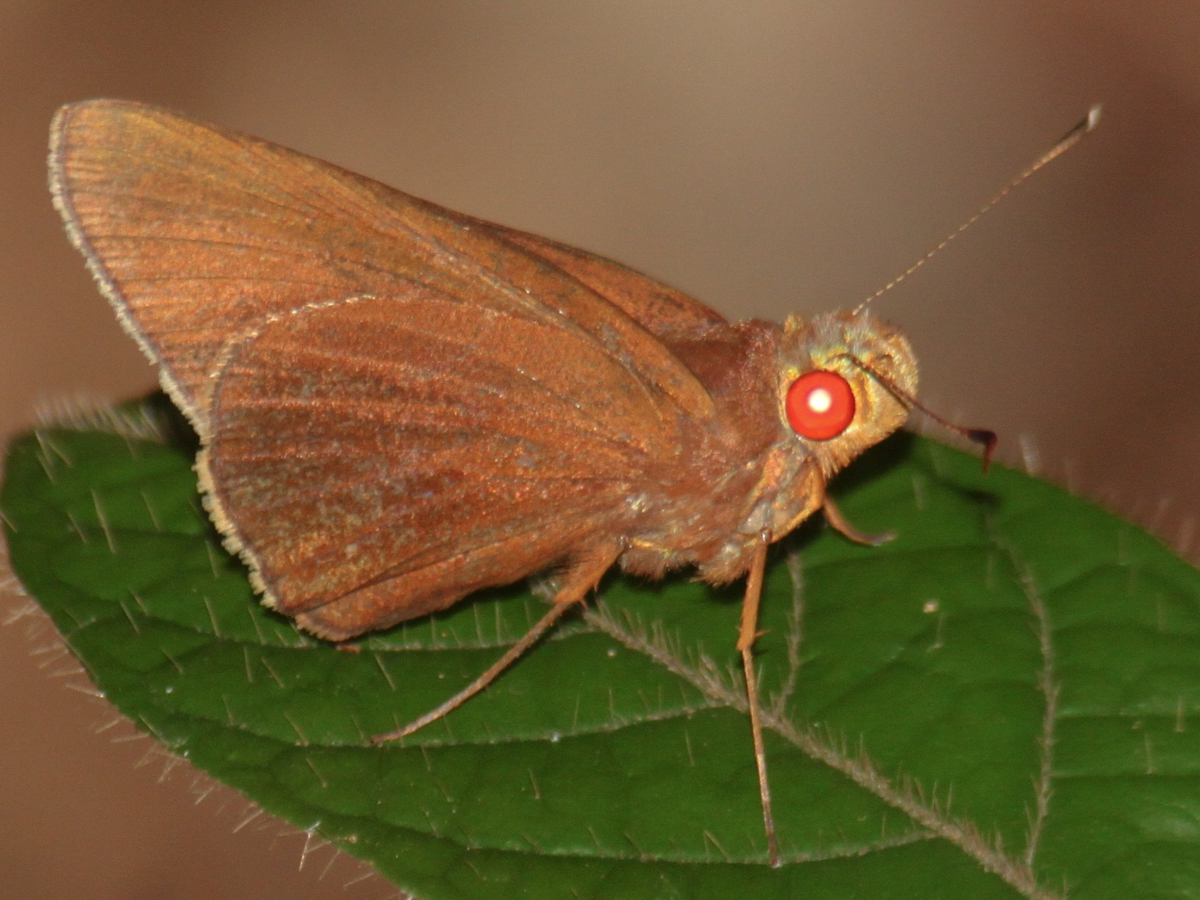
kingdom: Animalia
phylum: Arthropoda
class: Insecta
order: Lepidoptera
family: Hesperiidae
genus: Matapa
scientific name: Matapa aria
